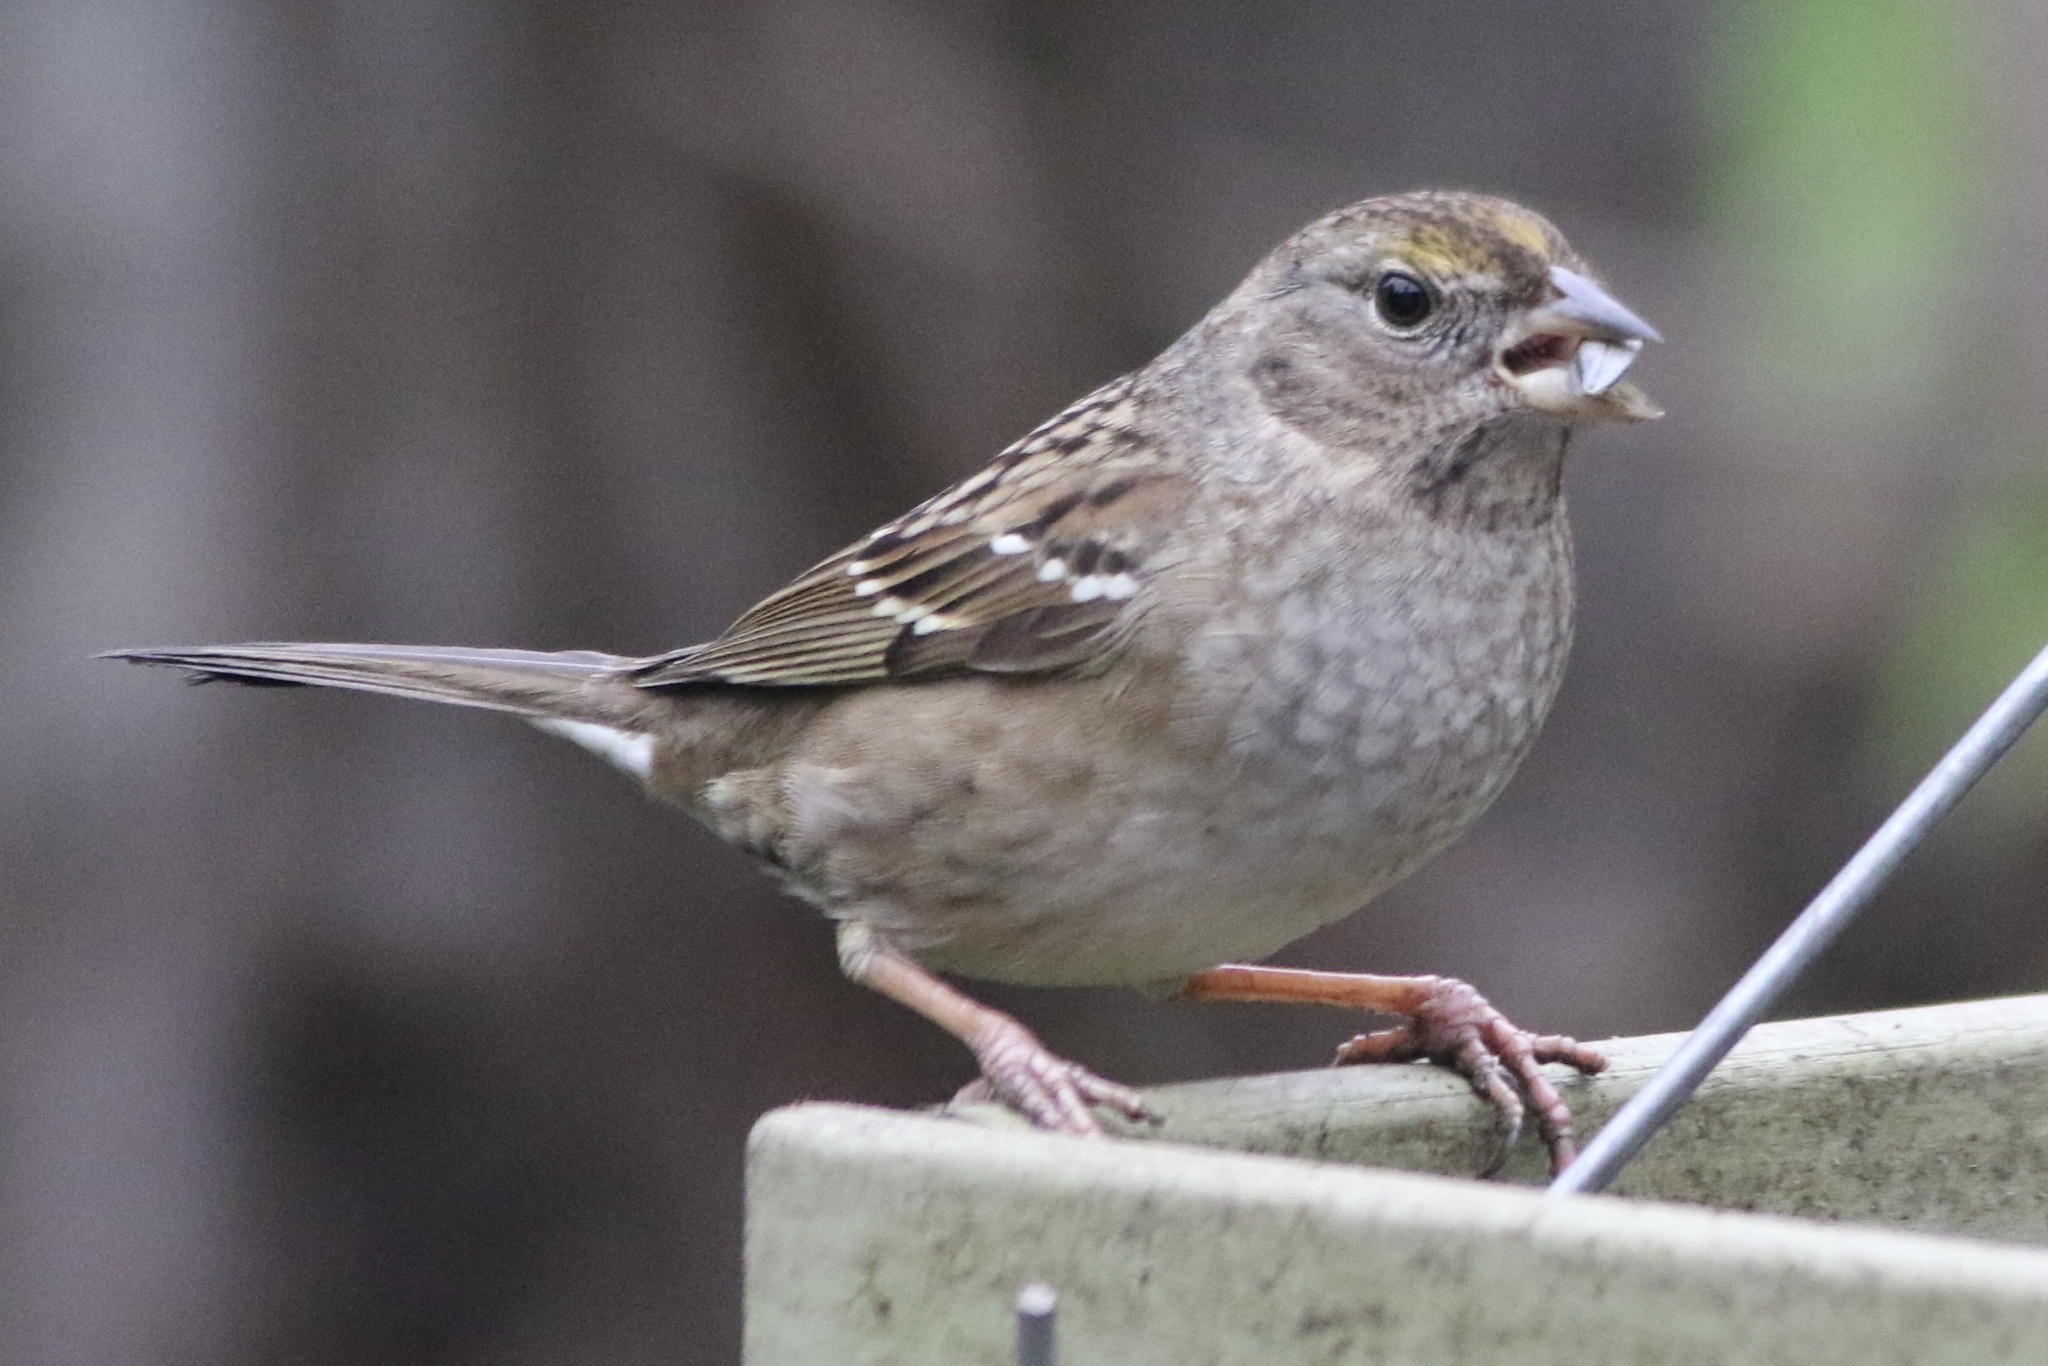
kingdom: Animalia
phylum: Chordata
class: Aves
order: Passeriformes
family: Passerellidae
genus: Zonotrichia
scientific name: Zonotrichia atricapilla
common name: Golden-crowned sparrow
